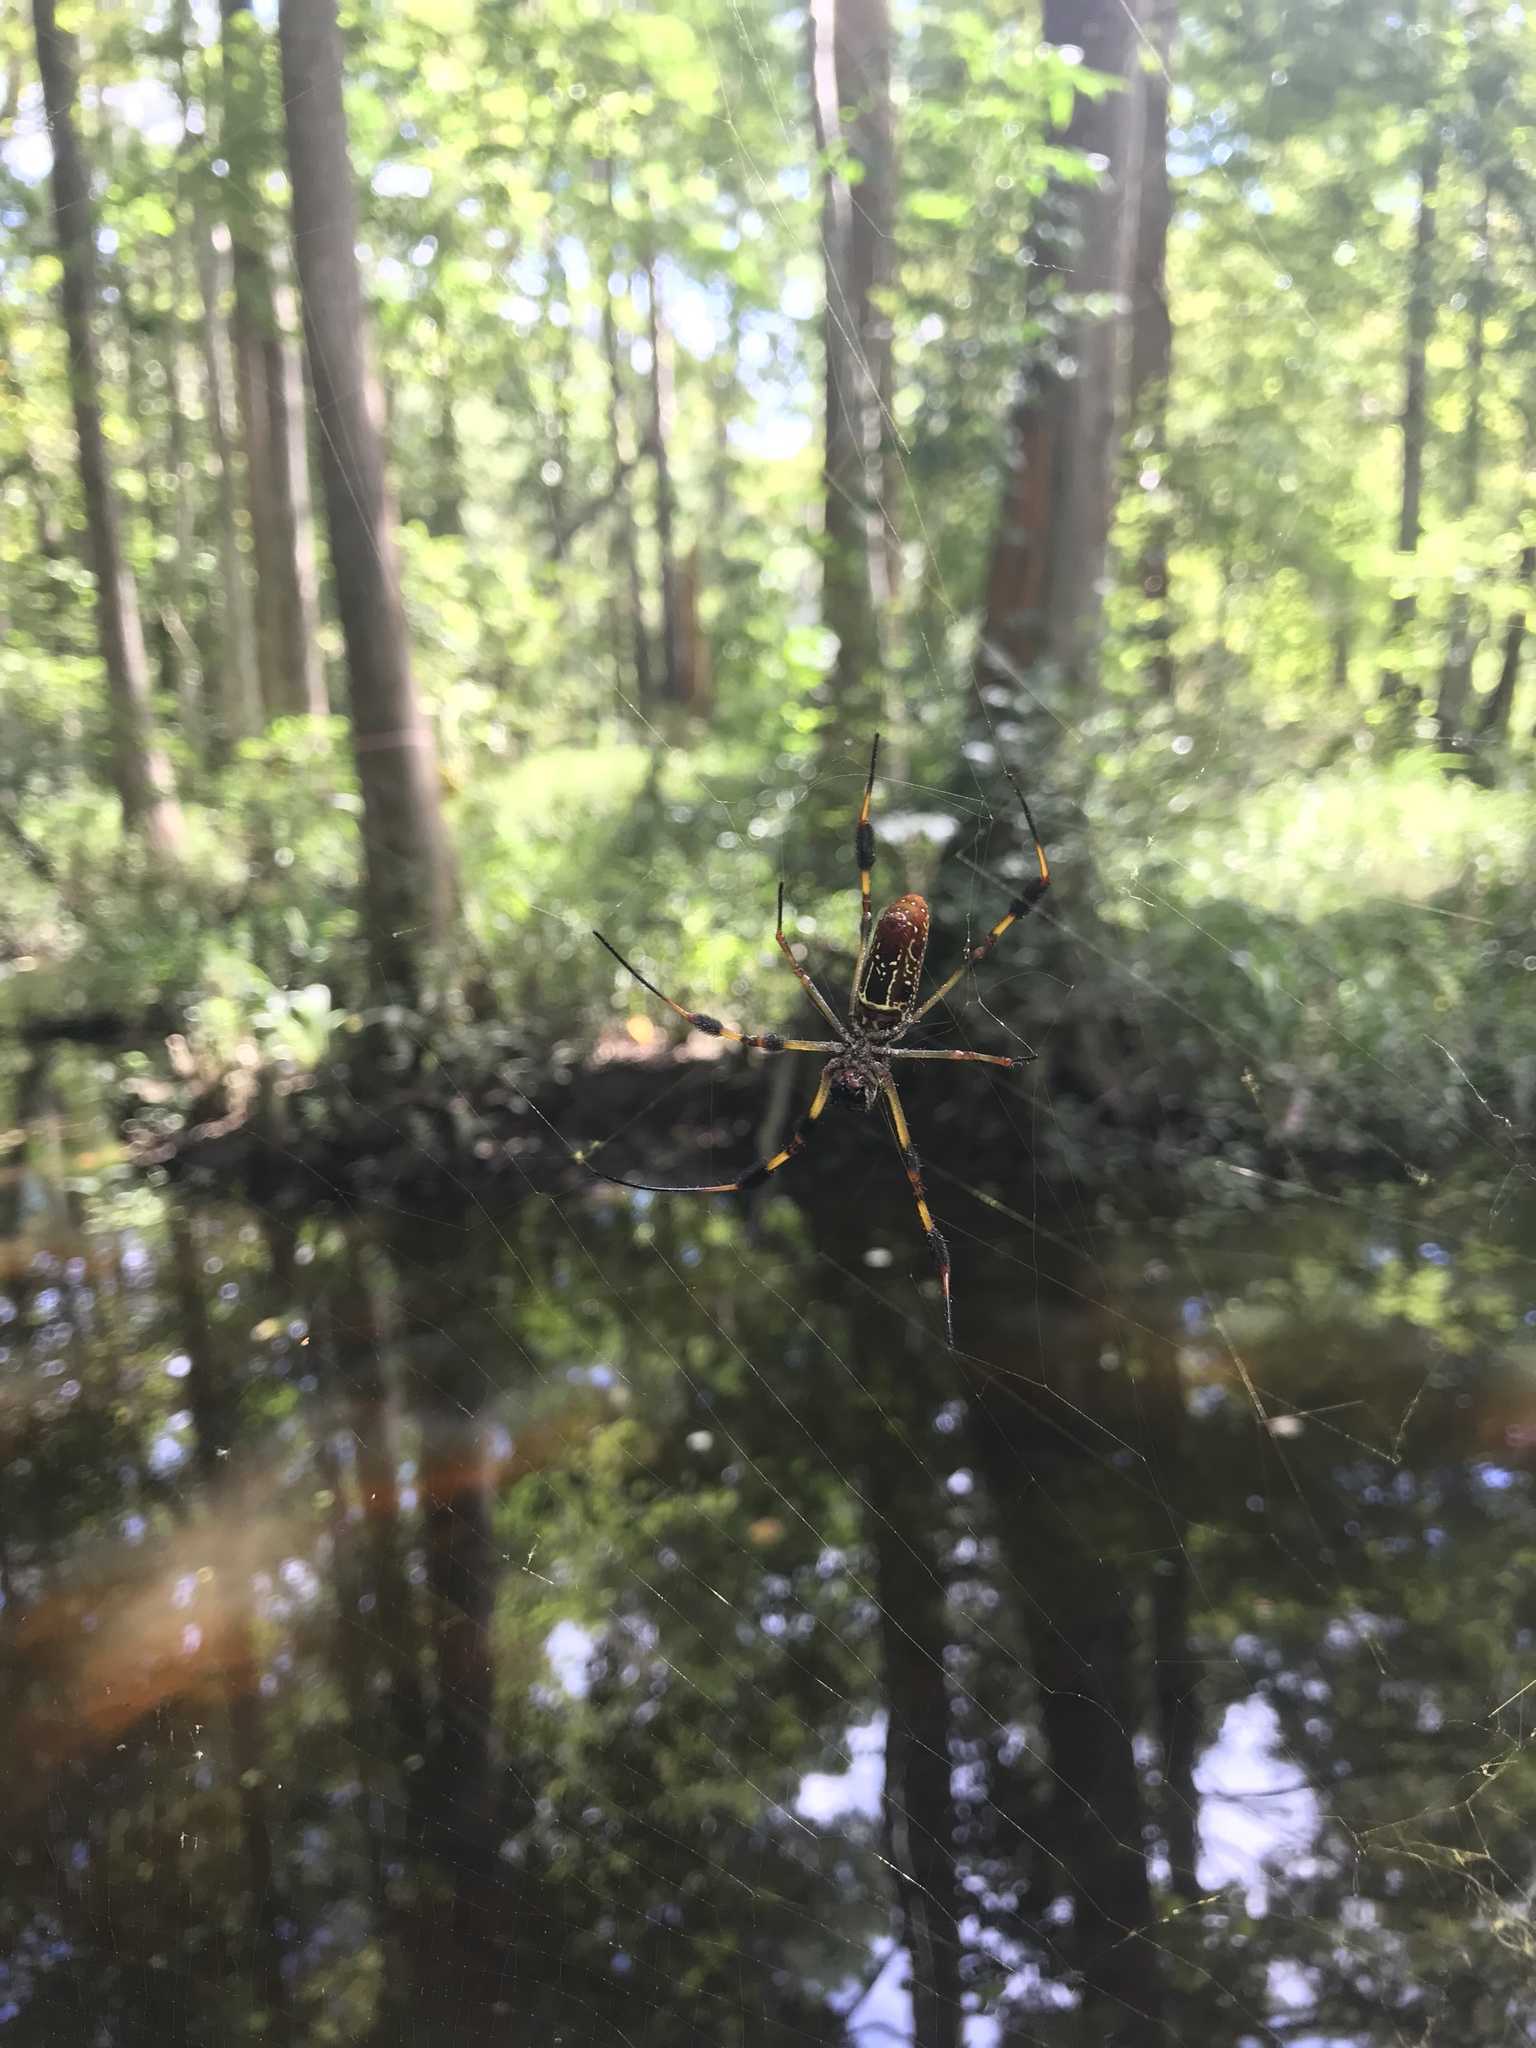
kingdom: Animalia
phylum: Arthropoda
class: Arachnida
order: Araneae
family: Araneidae
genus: Trichonephila
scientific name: Trichonephila clavipes
